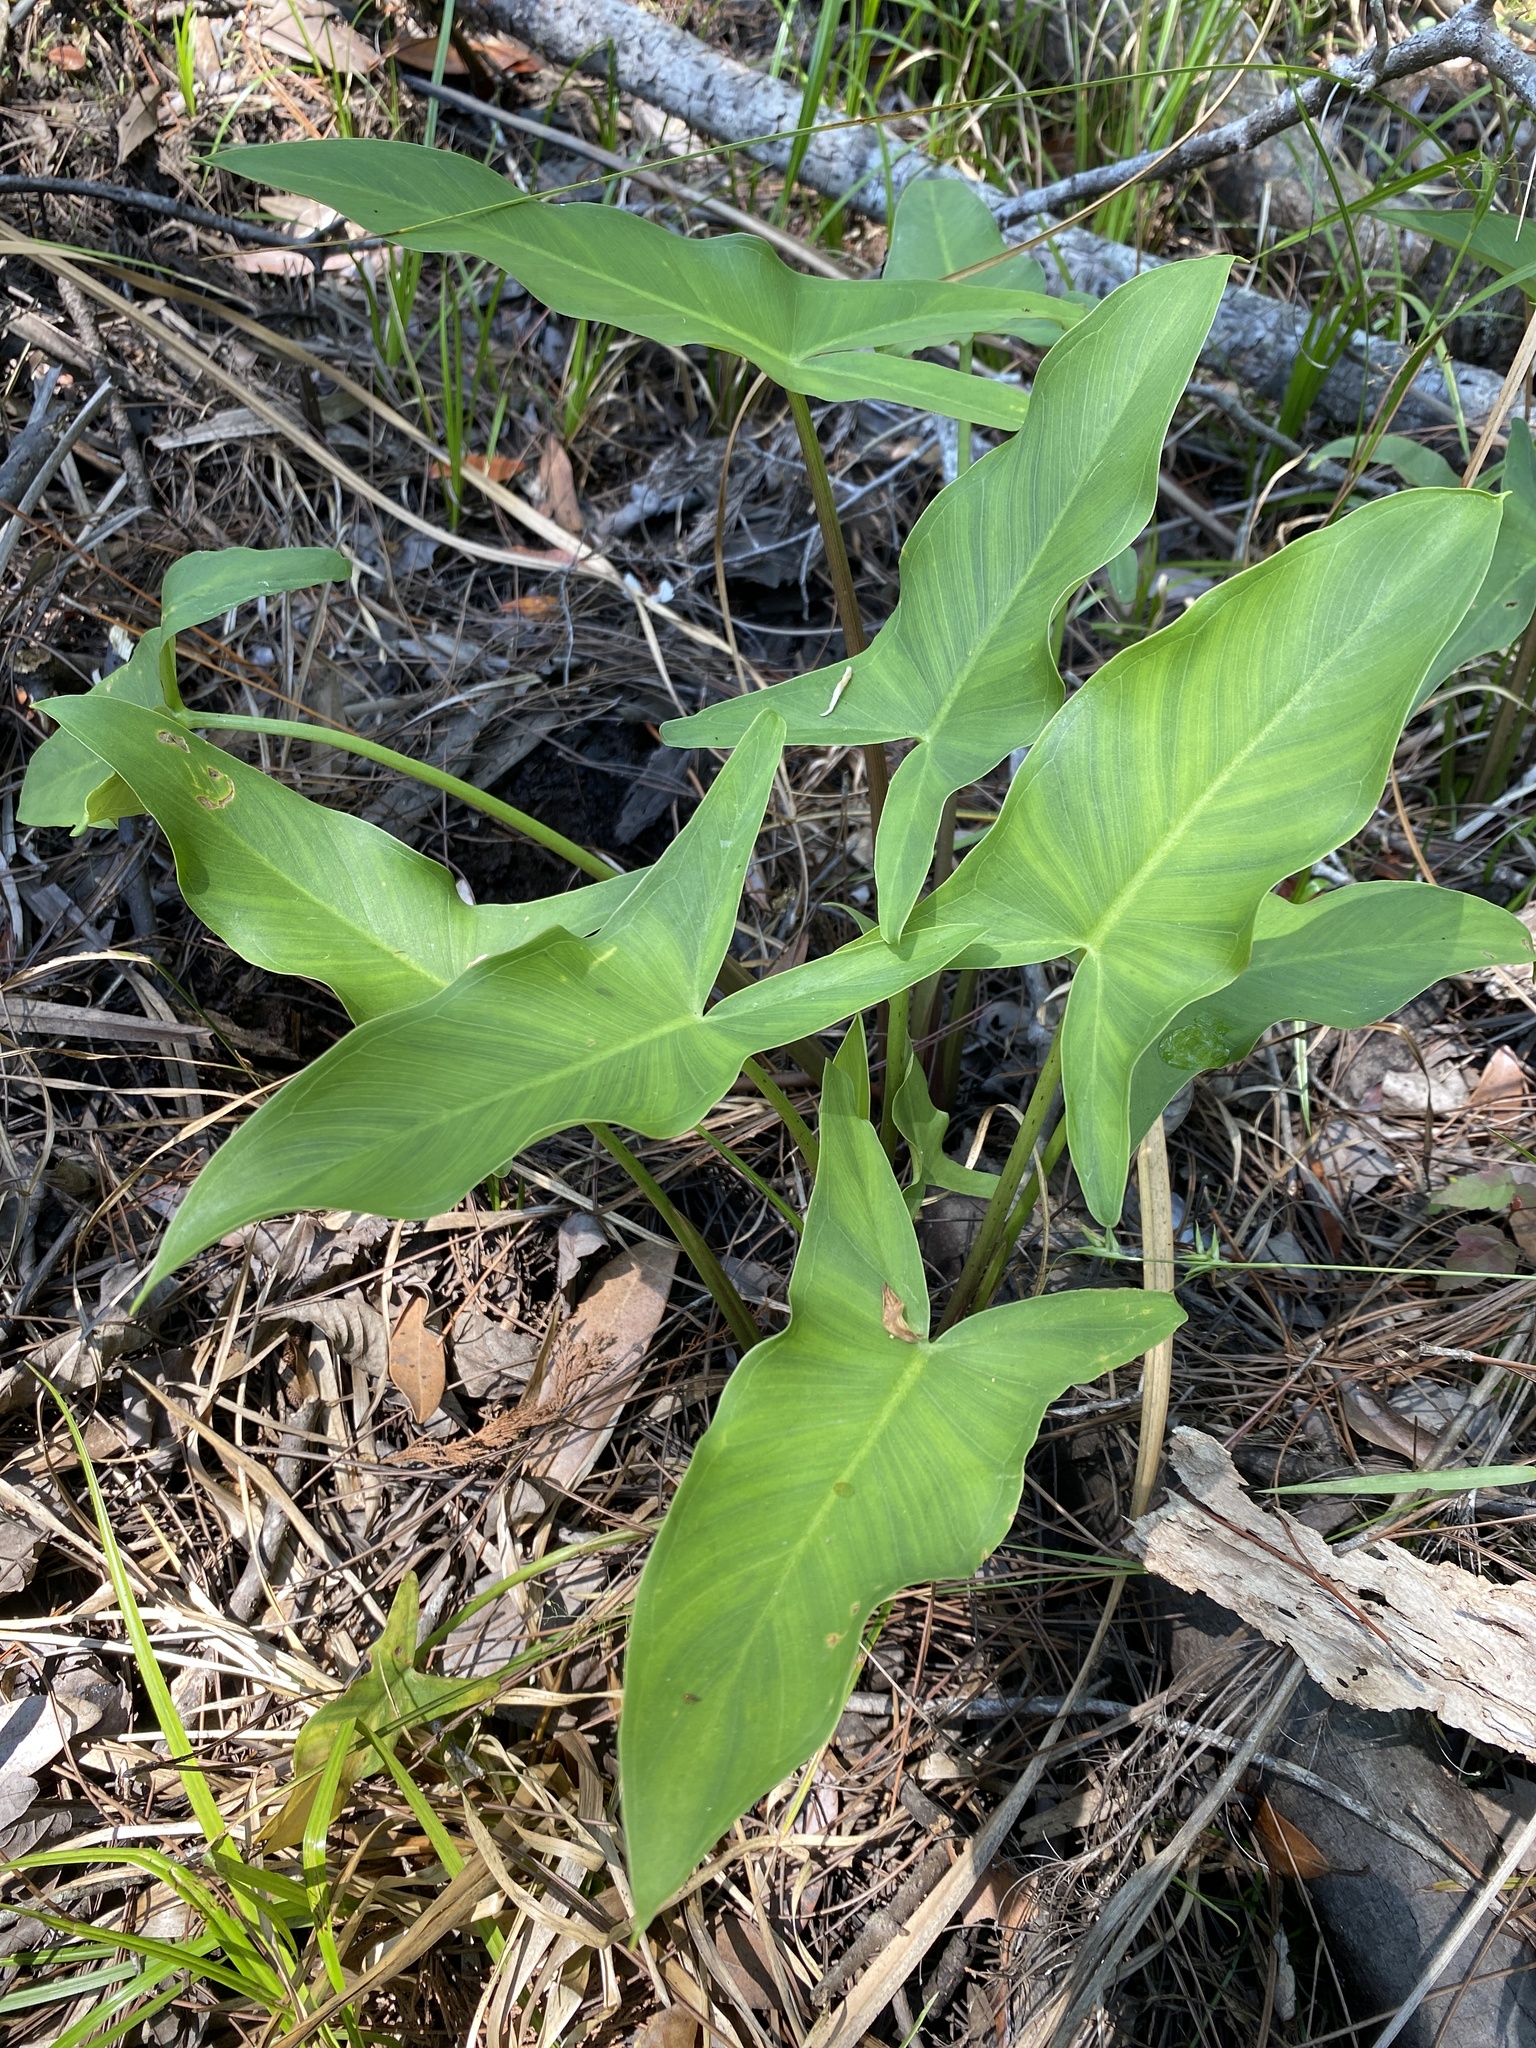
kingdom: Plantae
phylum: Tracheophyta
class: Liliopsida
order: Alismatales
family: Araceae
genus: Peltandra
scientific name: Peltandra virginica
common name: Arrow arum
